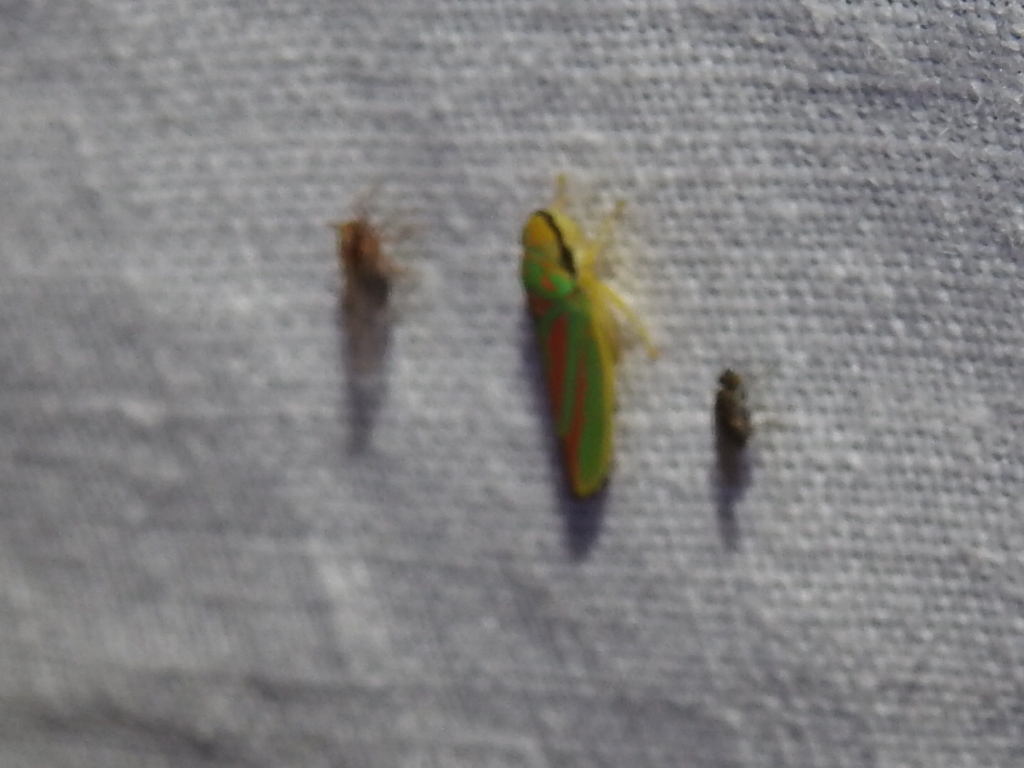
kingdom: Animalia
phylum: Arthropoda
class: Insecta
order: Hemiptera
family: Cicadellidae
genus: Graphocephala
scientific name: Graphocephala fennahi
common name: Rhododendron leafhopper
